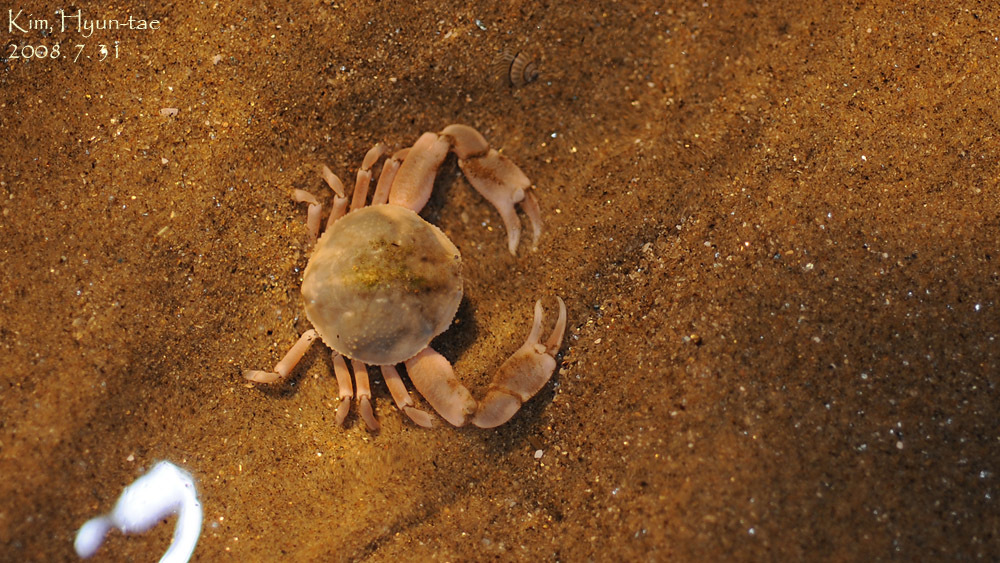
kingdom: Animalia
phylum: Arthropoda
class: Malacostraca
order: Decapoda
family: Leucosiidae
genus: Pyrhila
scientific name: Pyrhila pisum
